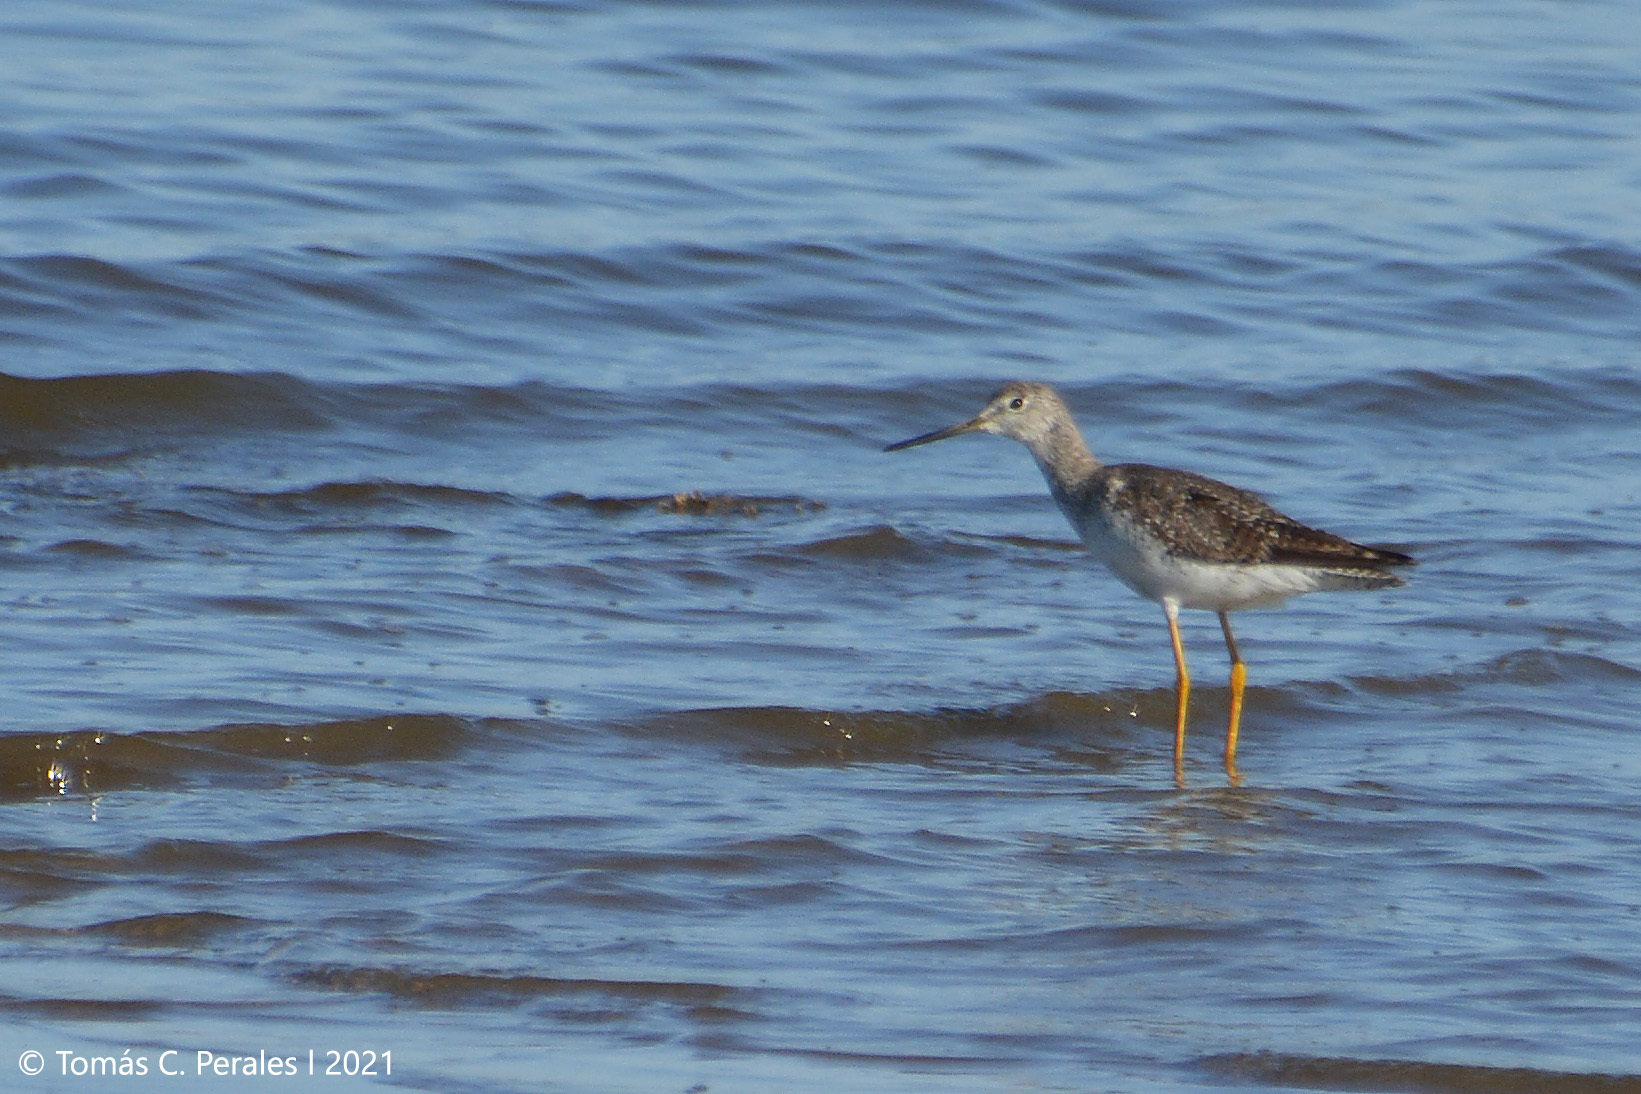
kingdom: Animalia
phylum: Chordata
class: Aves
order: Charadriiformes
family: Scolopacidae
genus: Tringa
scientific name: Tringa melanoleuca
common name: Greater yellowlegs
